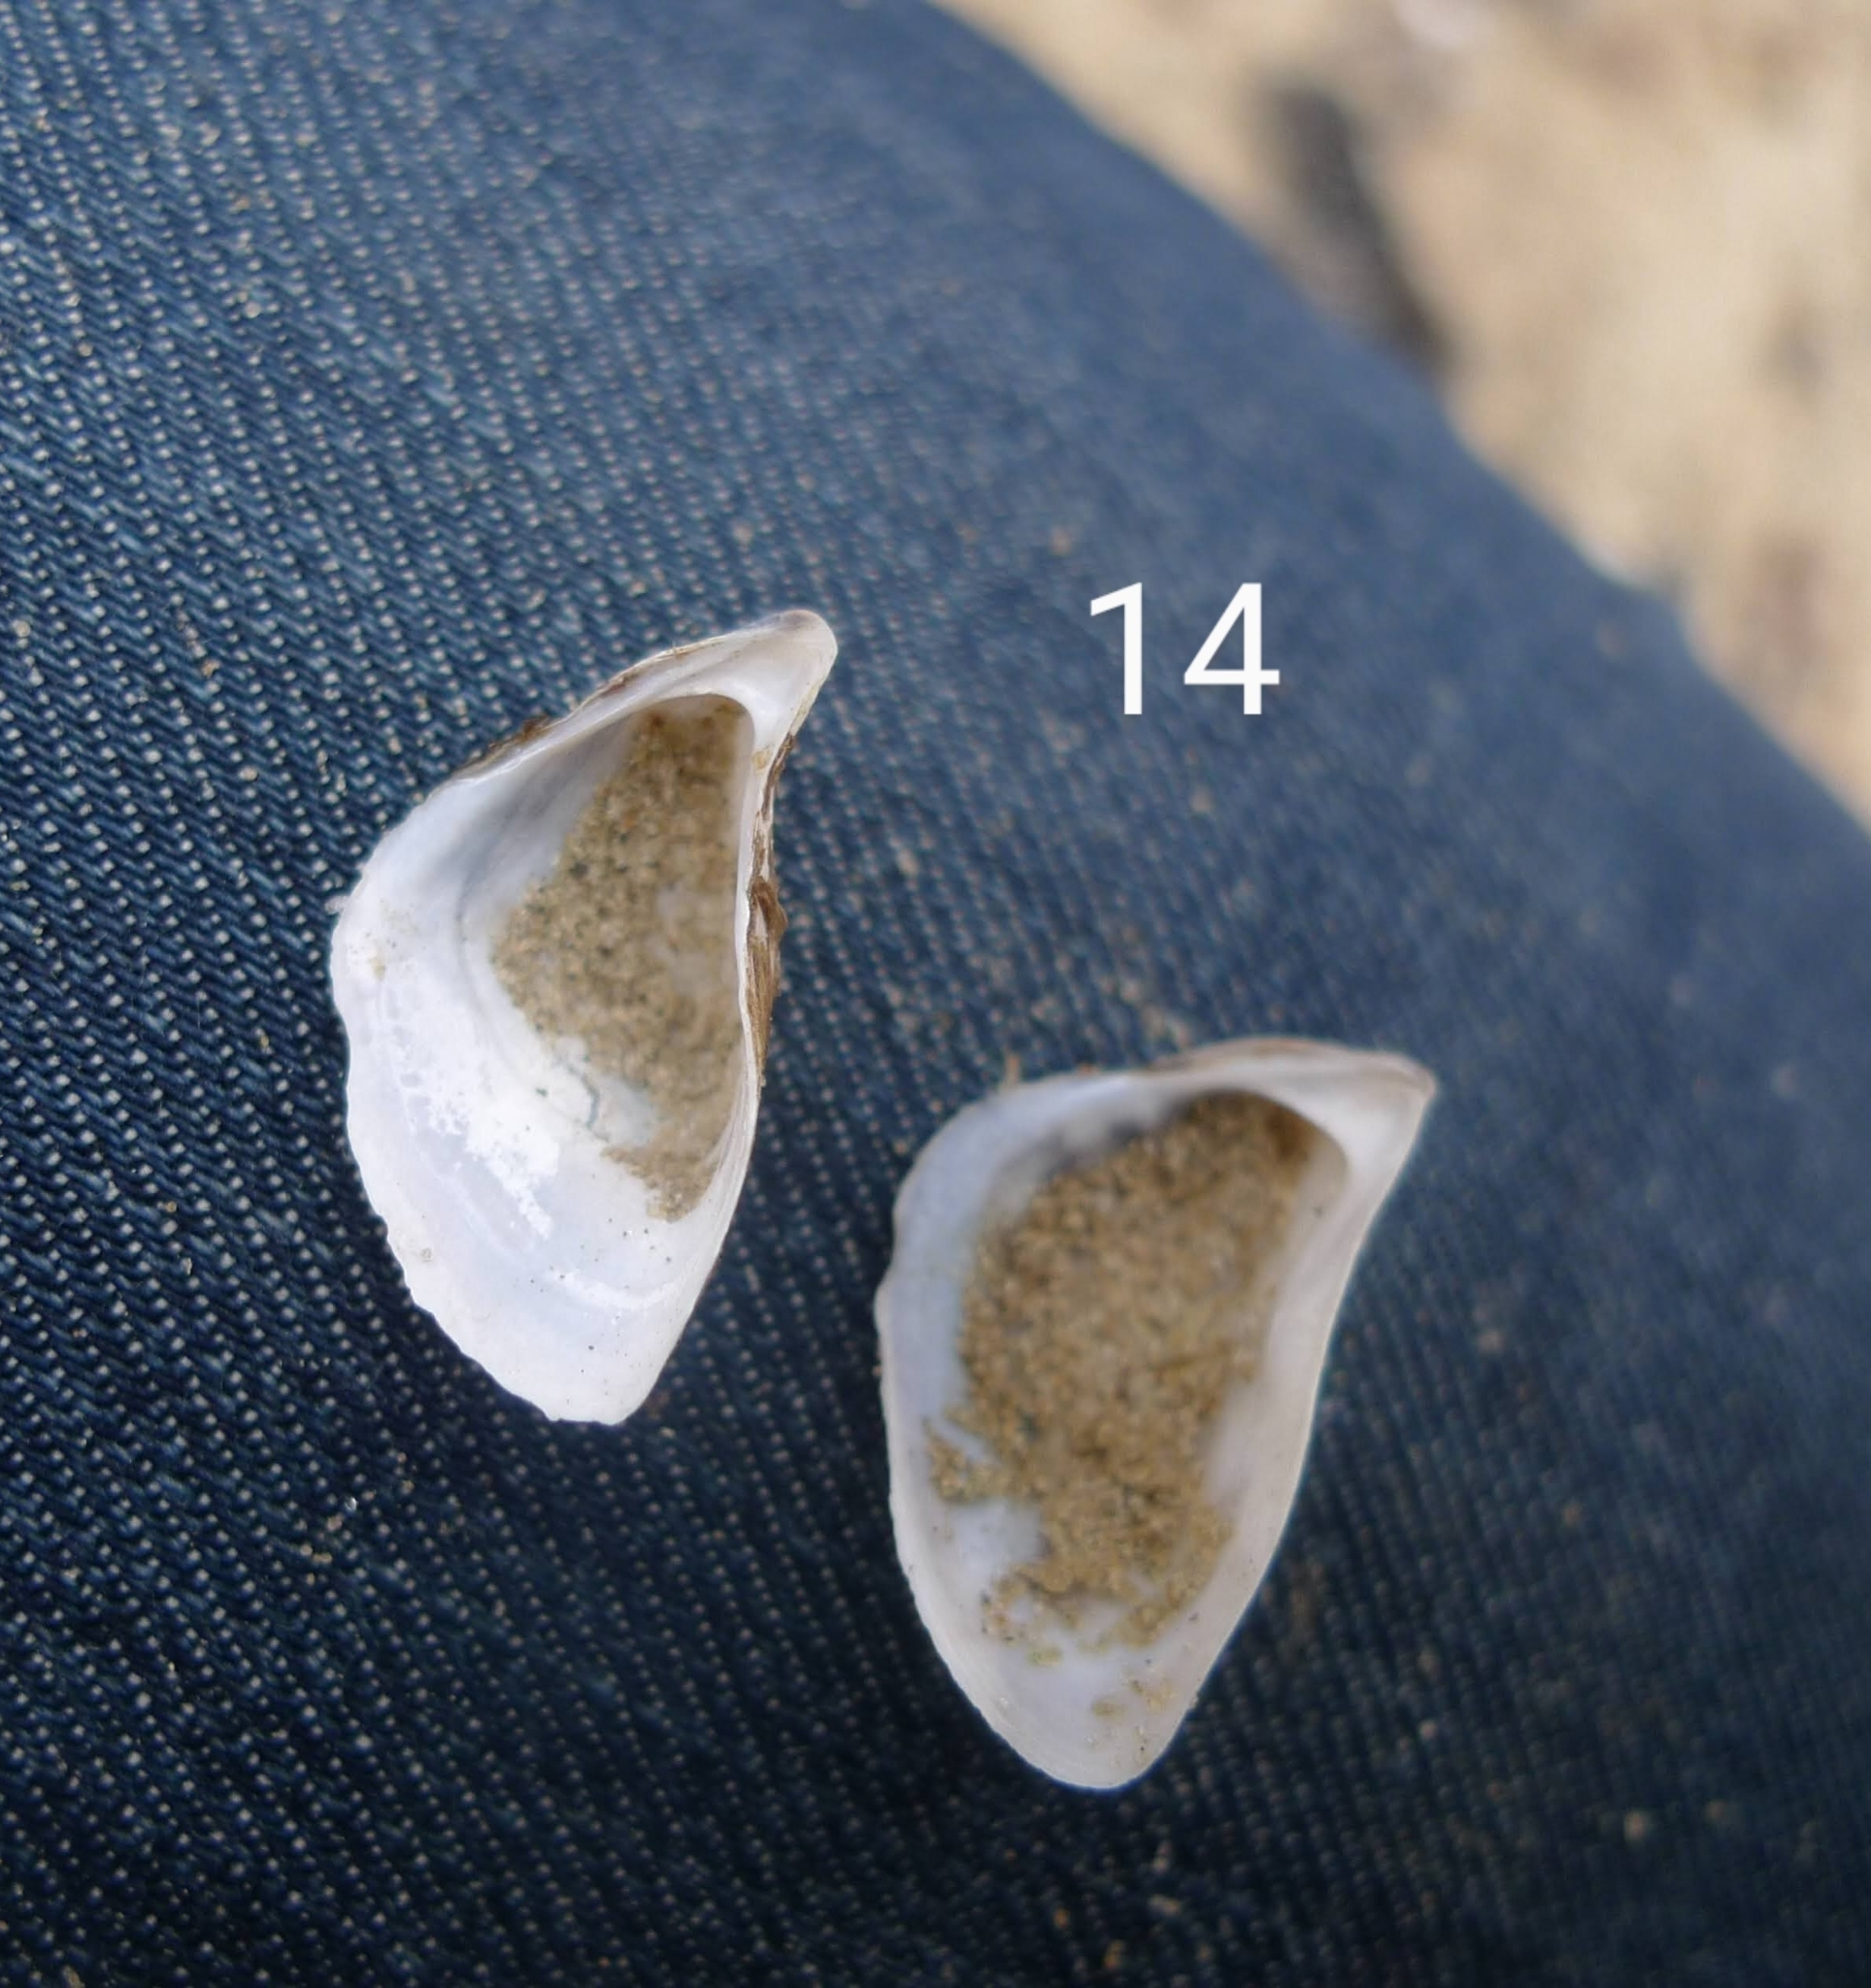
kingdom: Animalia
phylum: Mollusca
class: Bivalvia
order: Myida
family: Dreissenidae
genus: Dreissena
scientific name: Dreissena polymorpha
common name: Zebra mussel
